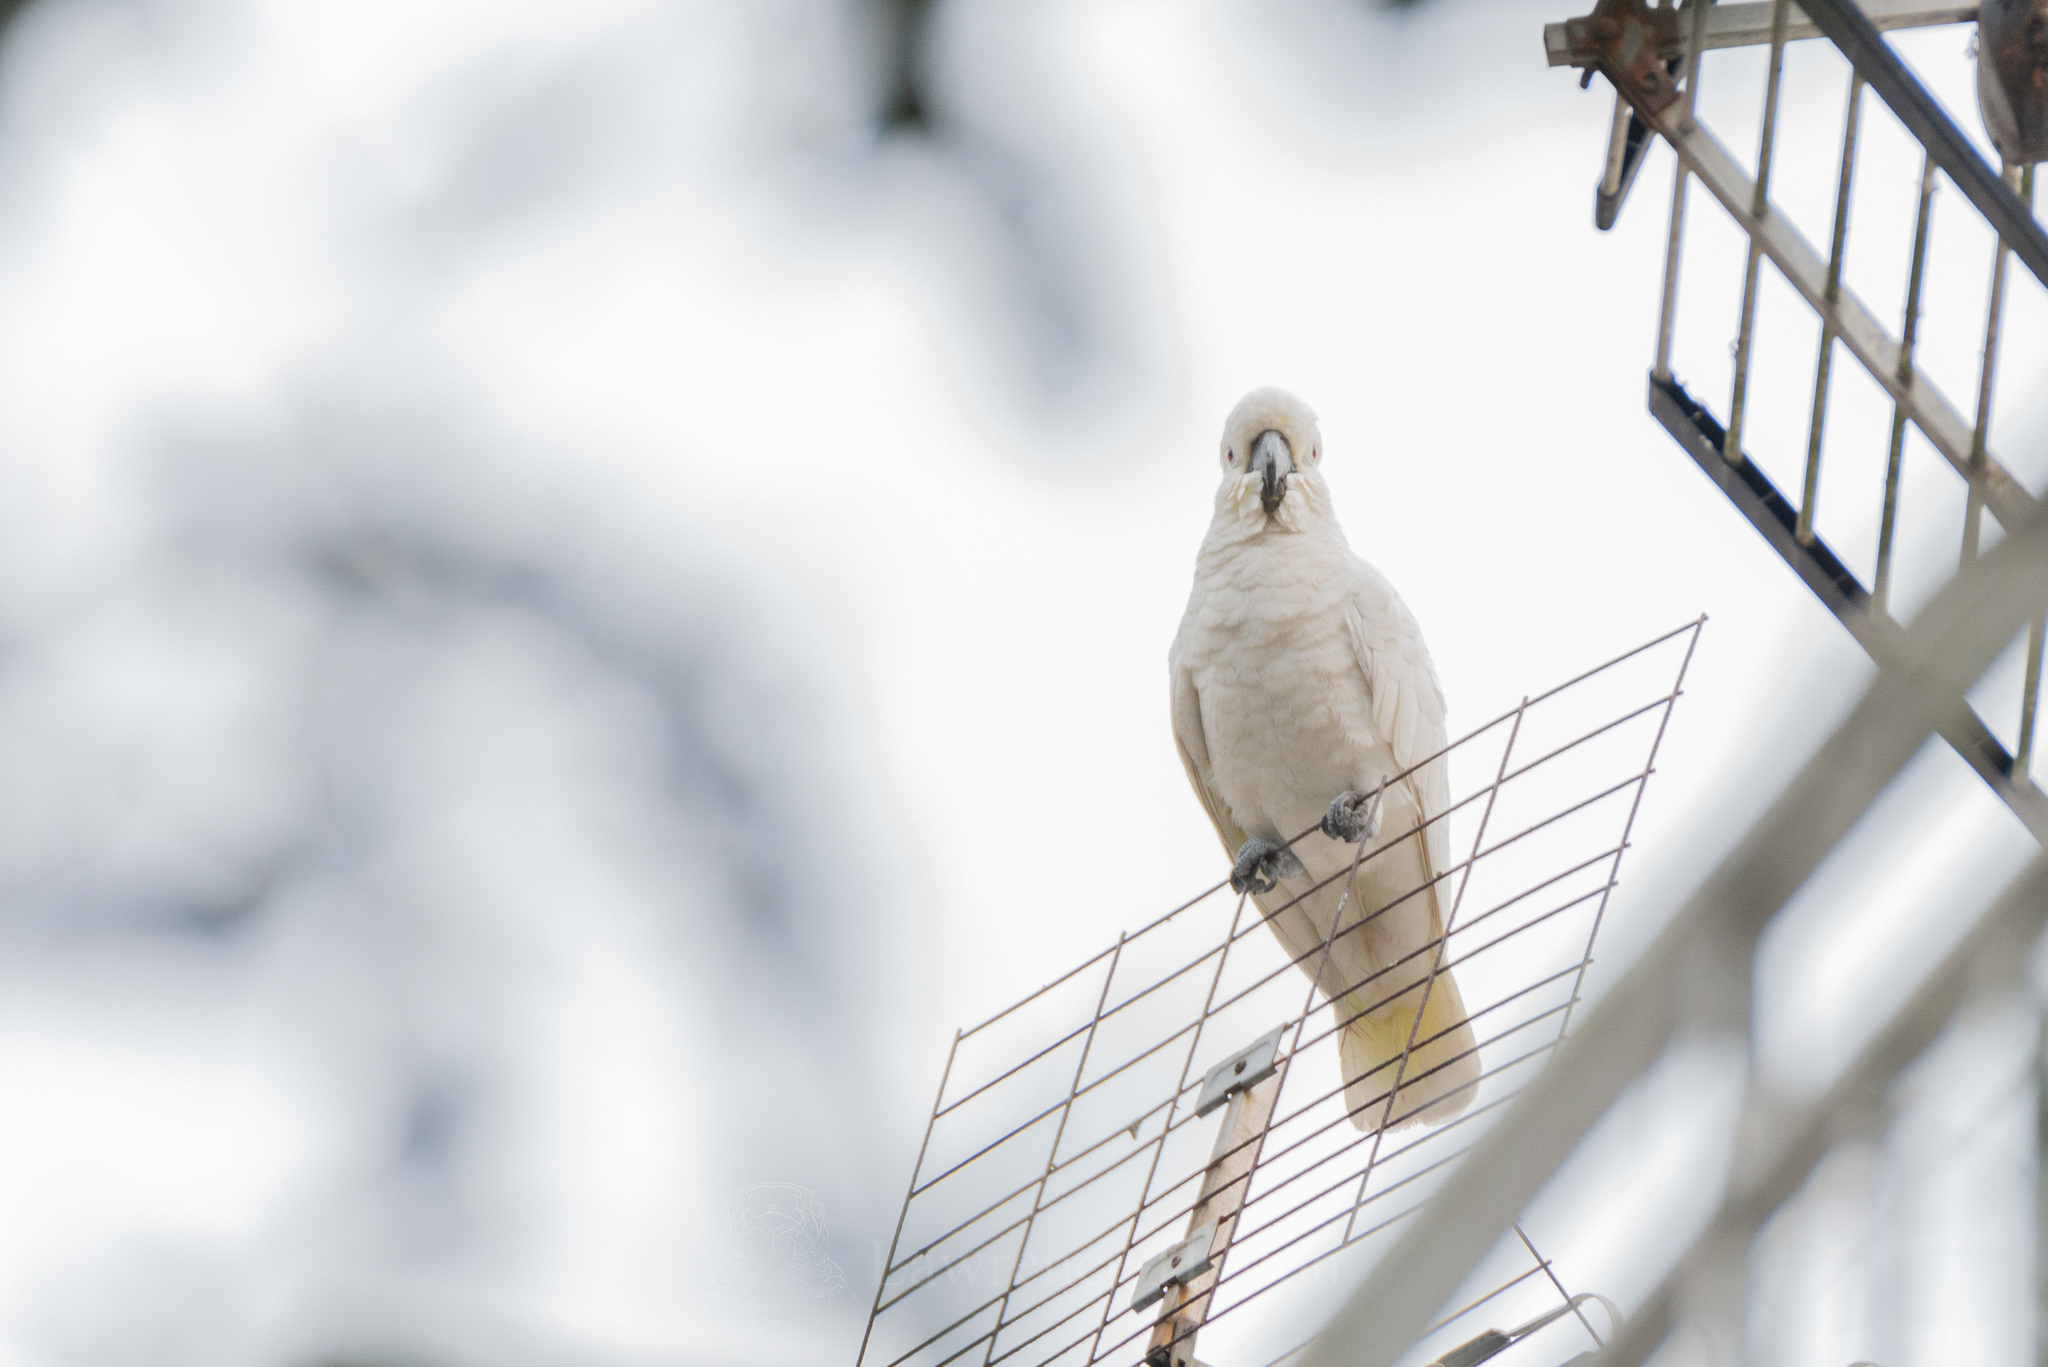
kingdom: Animalia
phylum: Chordata
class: Aves
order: Psittaciformes
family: Psittacidae
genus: Cacatua
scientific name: Cacatua sulphurea
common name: Yellow-crested cockatoo
